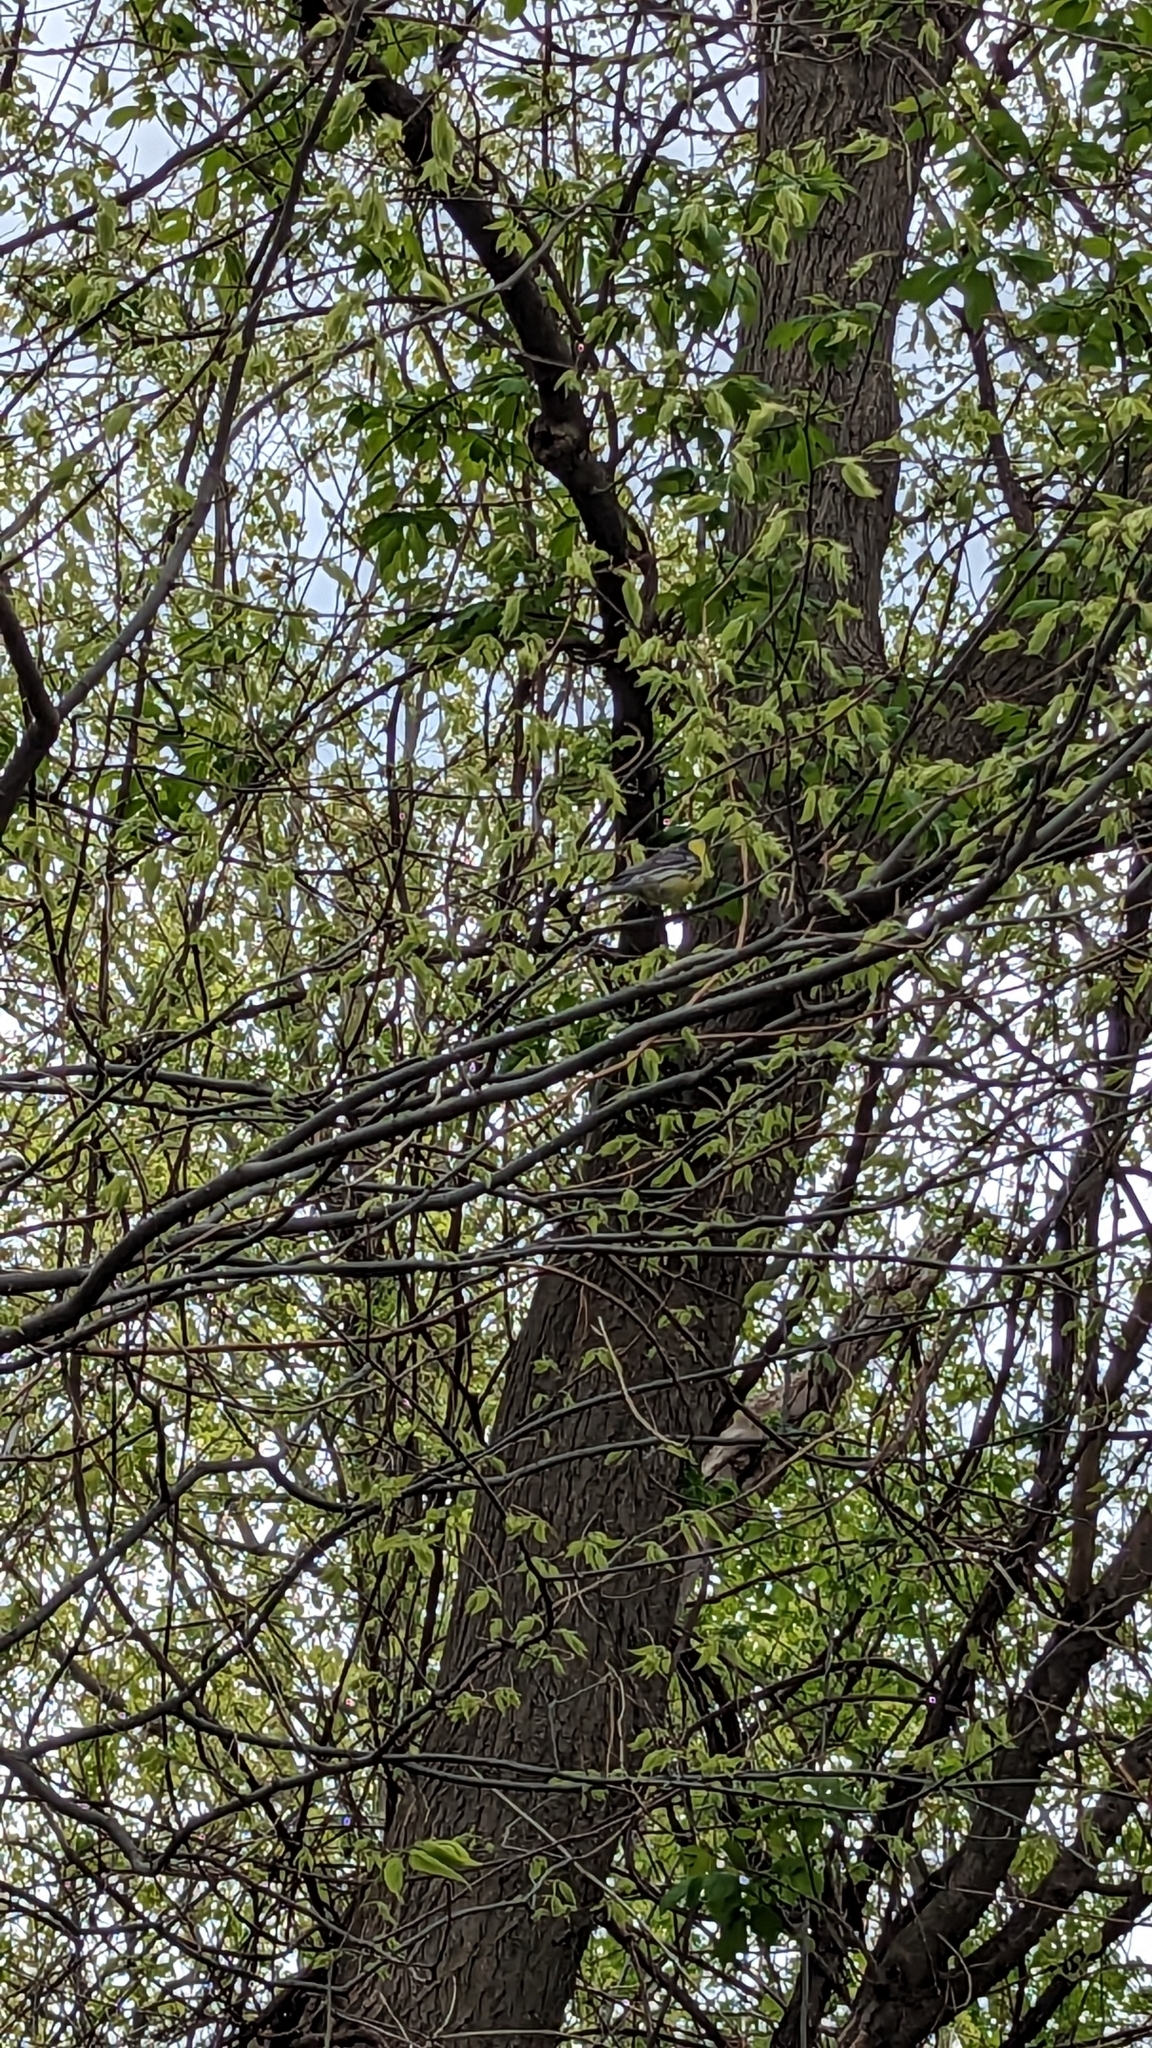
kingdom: Animalia
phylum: Chordata
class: Aves
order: Passeriformes
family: Parulidae
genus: Setophaga
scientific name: Setophaga kirtlandii
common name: Kirtland's warbler
